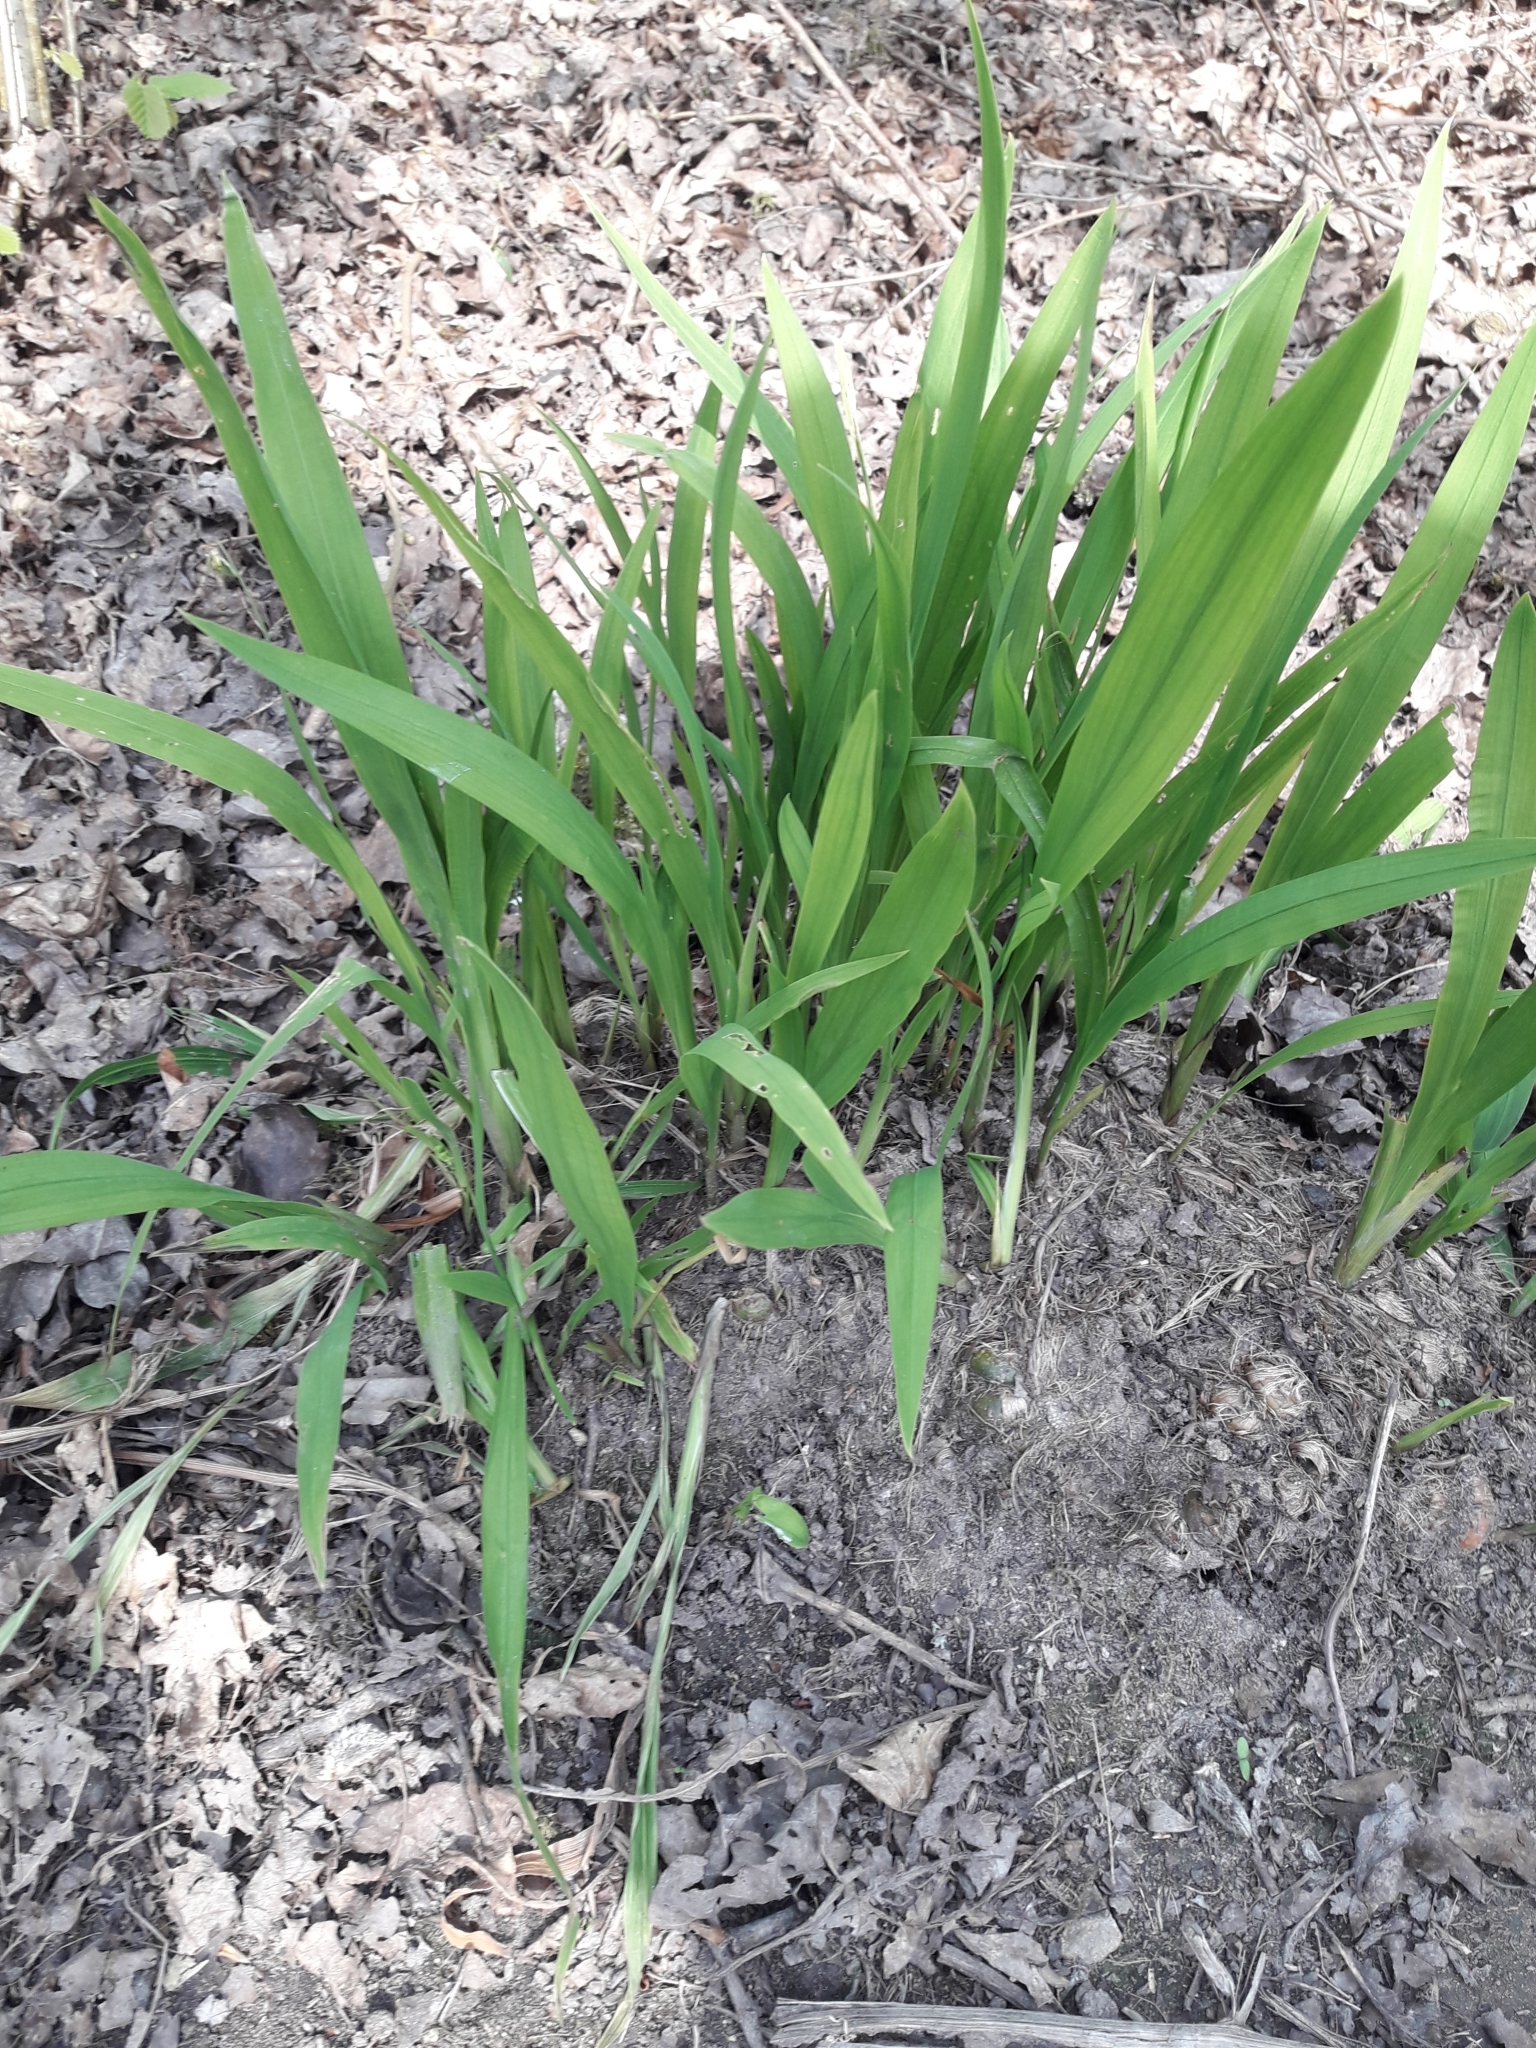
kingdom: Plantae
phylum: Tracheophyta
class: Liliopsida
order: Asparagales
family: Iridaceae
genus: Crocosmia
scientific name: Crocosmia crocosmiiflora
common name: Montbretia
